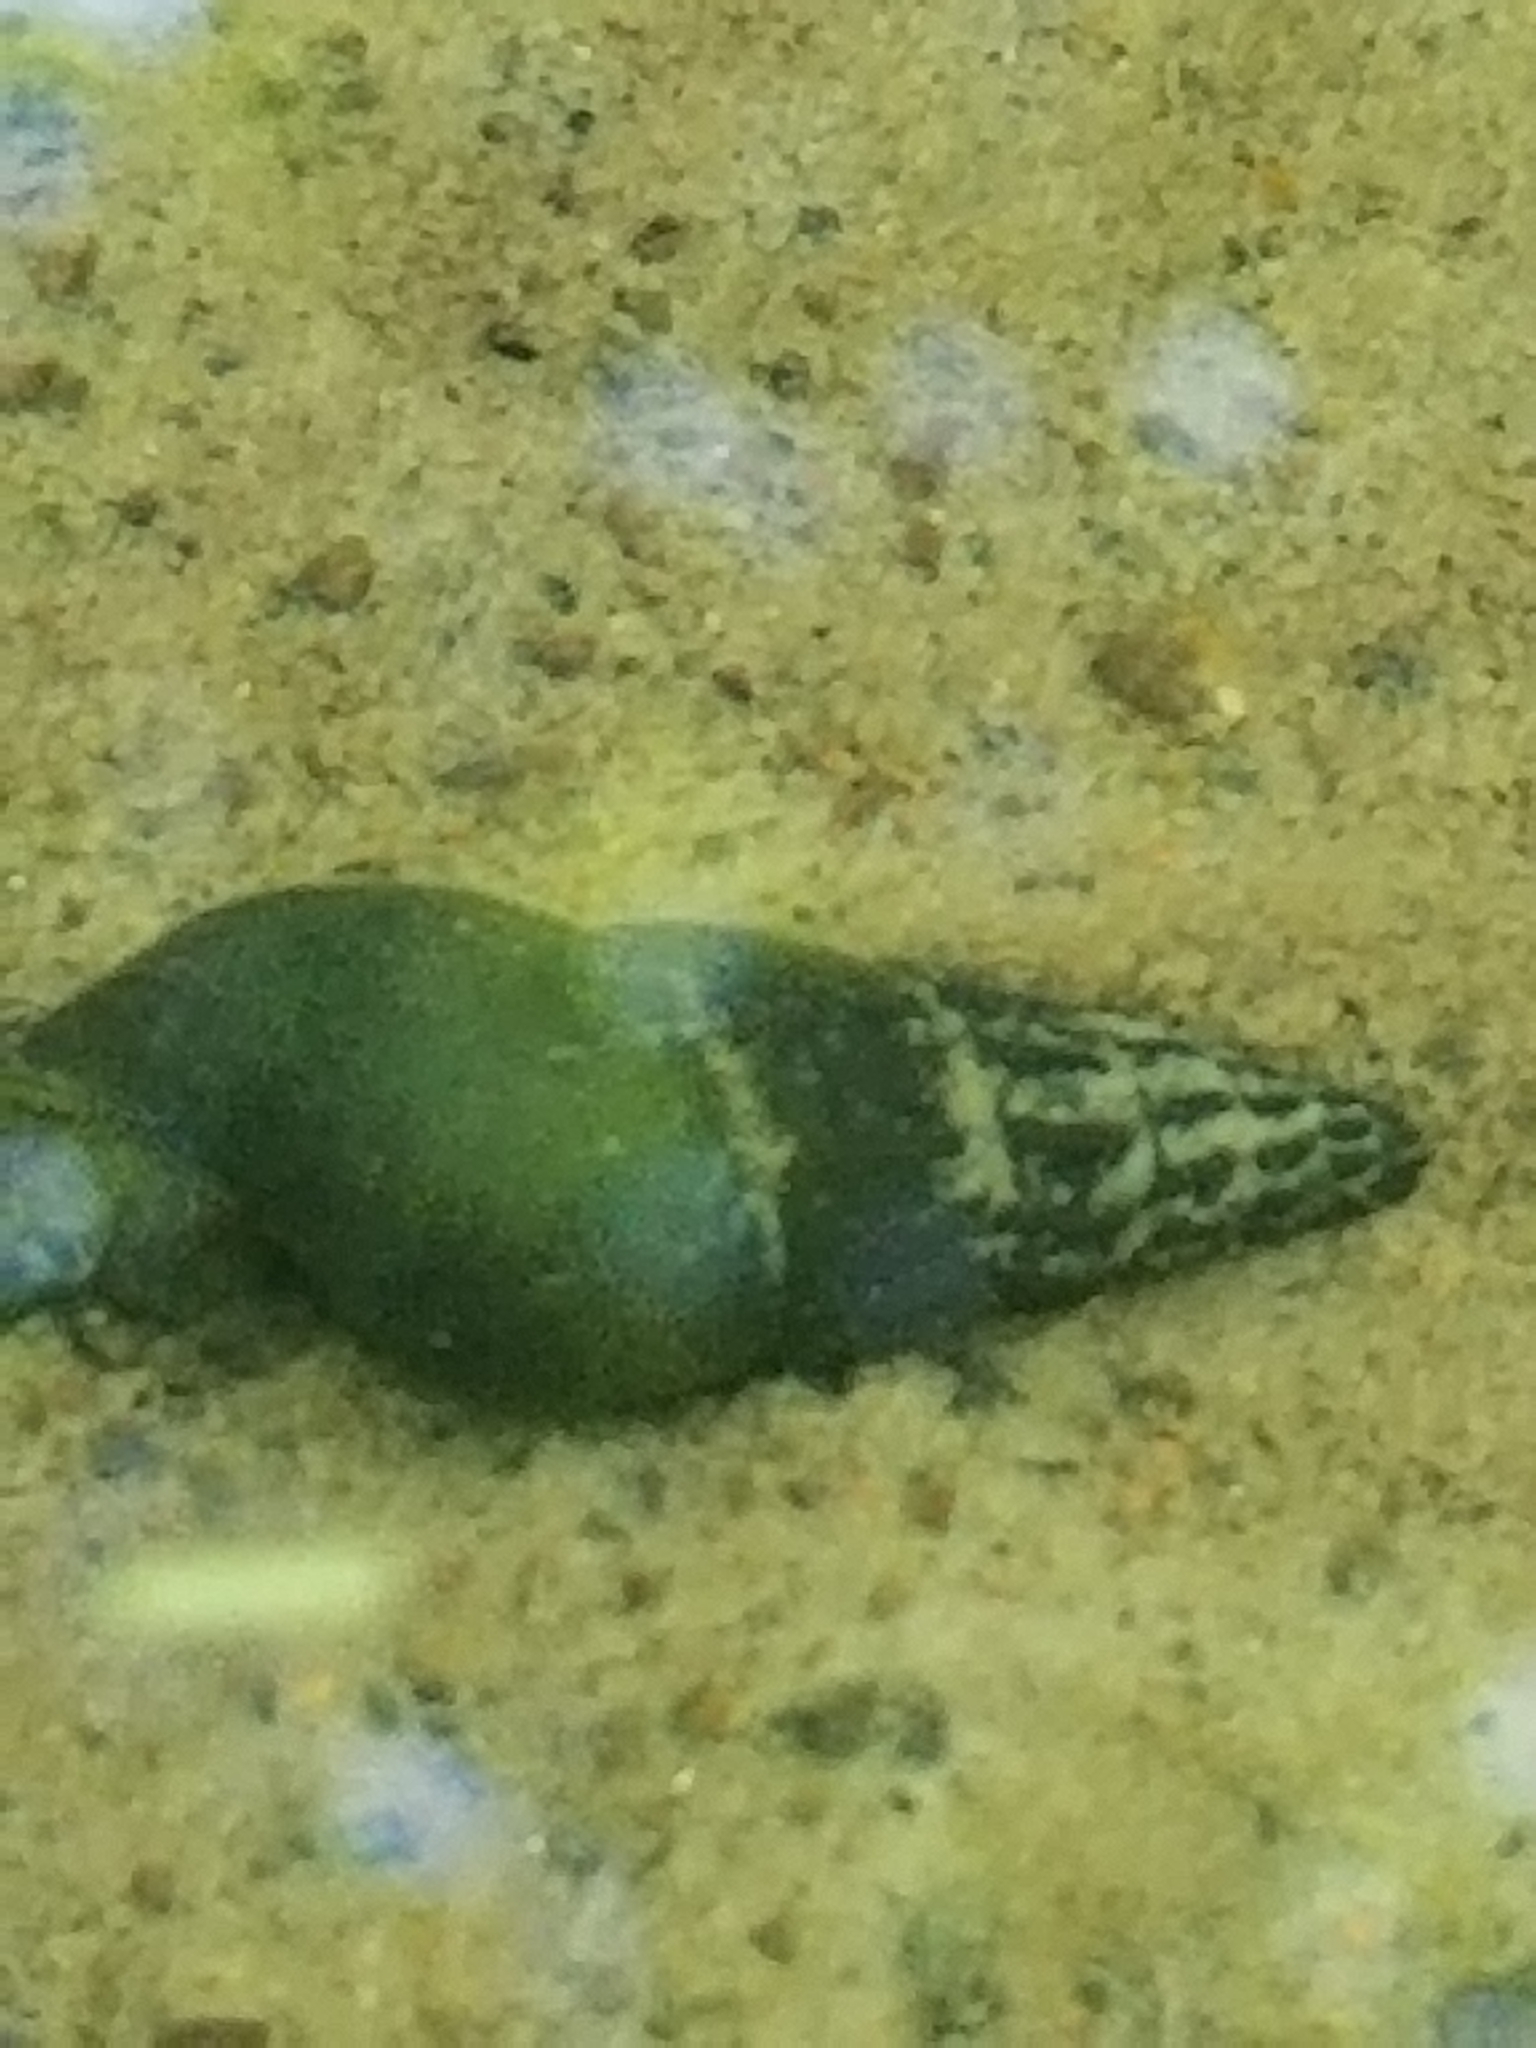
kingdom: Animalia
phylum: Mollusca
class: Gastropoda
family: Semisulcospiridae
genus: Juga
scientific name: Juga plicifera
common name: Pleated juga
